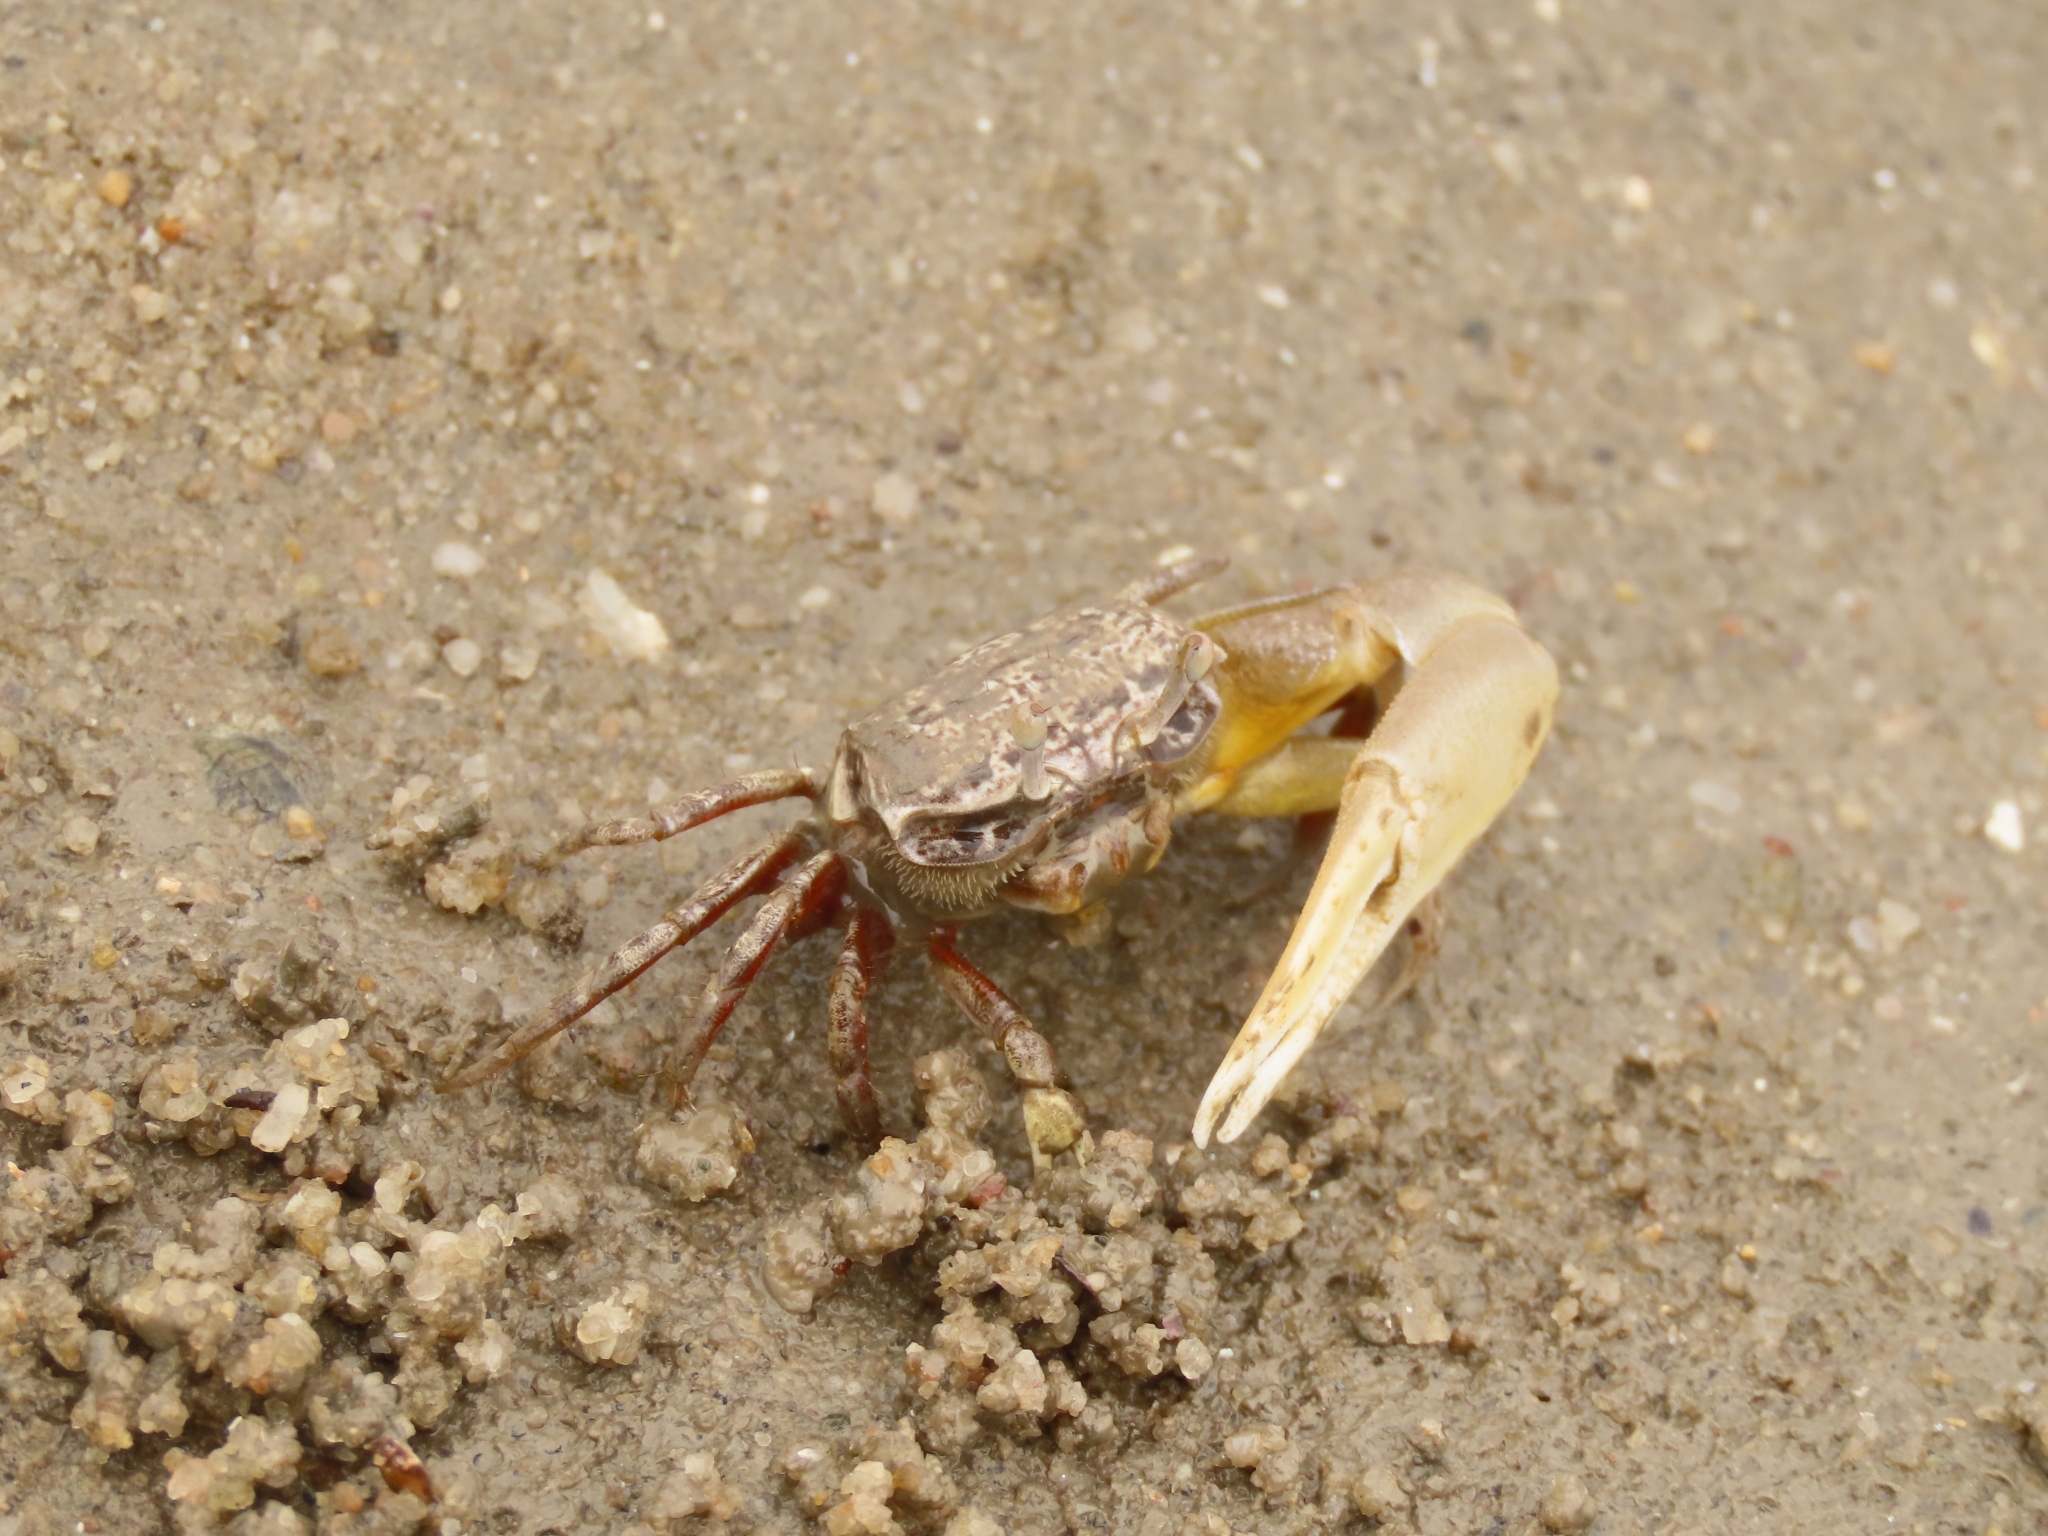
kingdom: Animalia
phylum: Arthropoda
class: Malacostraca
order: Decapoda
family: Ocypodidae
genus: Austruca
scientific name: Austruca lactea
